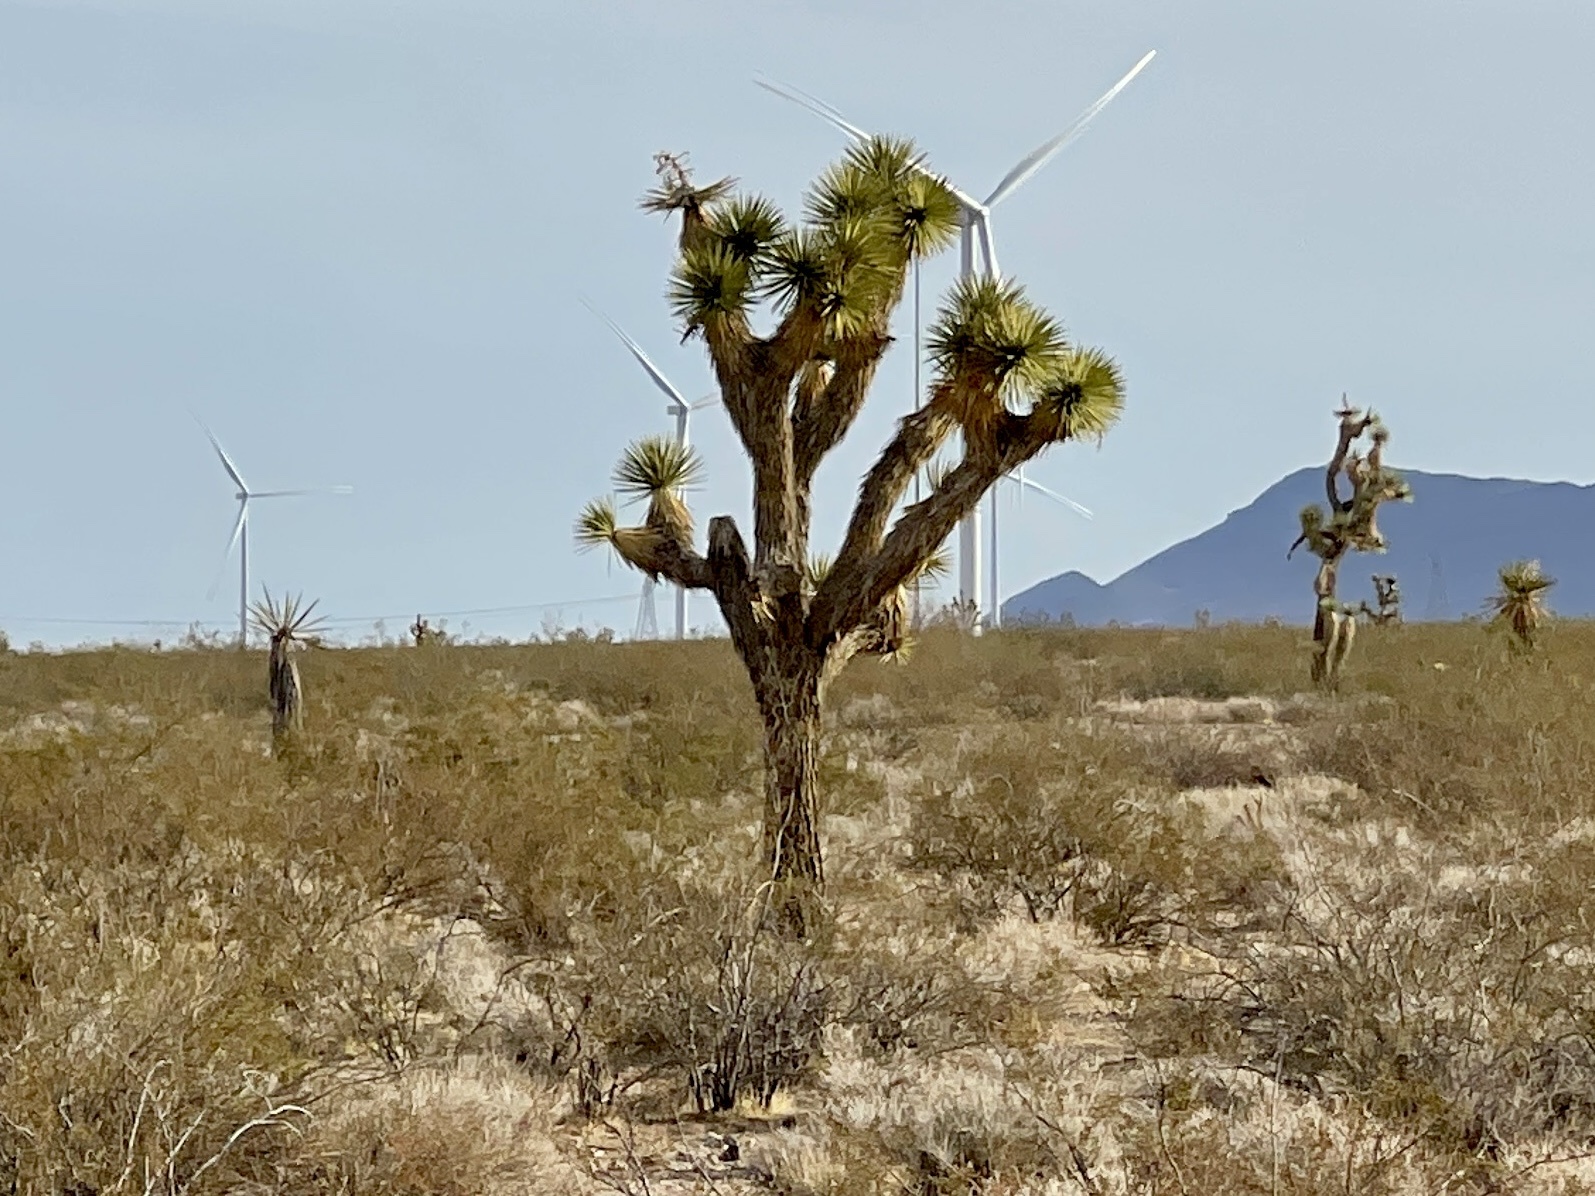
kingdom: Plantae
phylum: Tracheophyta
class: Liliopsida
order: Asparagales
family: Asparagaceae
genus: Yucca
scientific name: Yucca brevifolia
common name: Joshua tree
